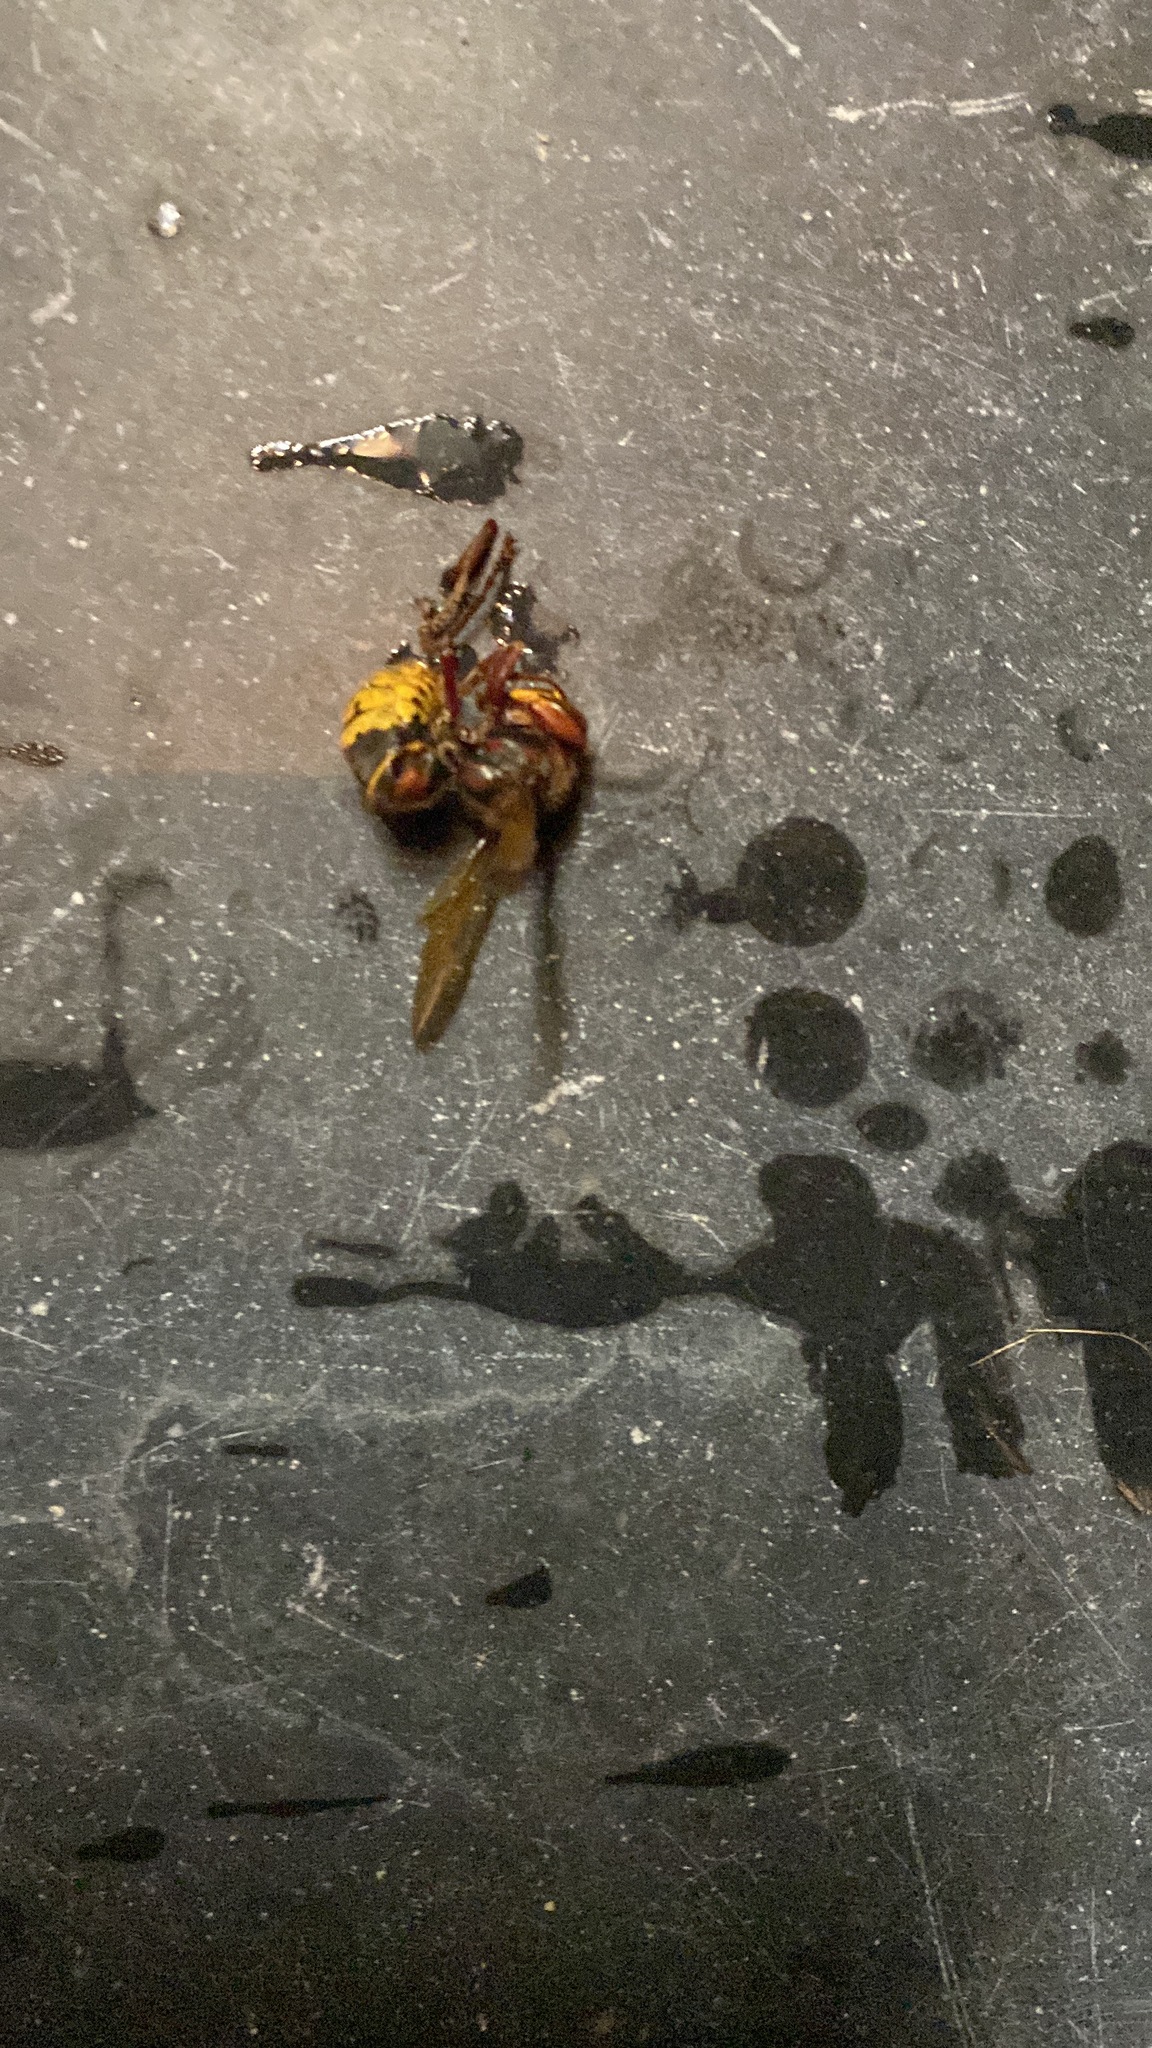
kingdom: Animalia
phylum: Arthropoda
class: Insecta
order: Hymenoptera
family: Vespidae
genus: Vespa
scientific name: Vespa crabro
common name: Hornet
